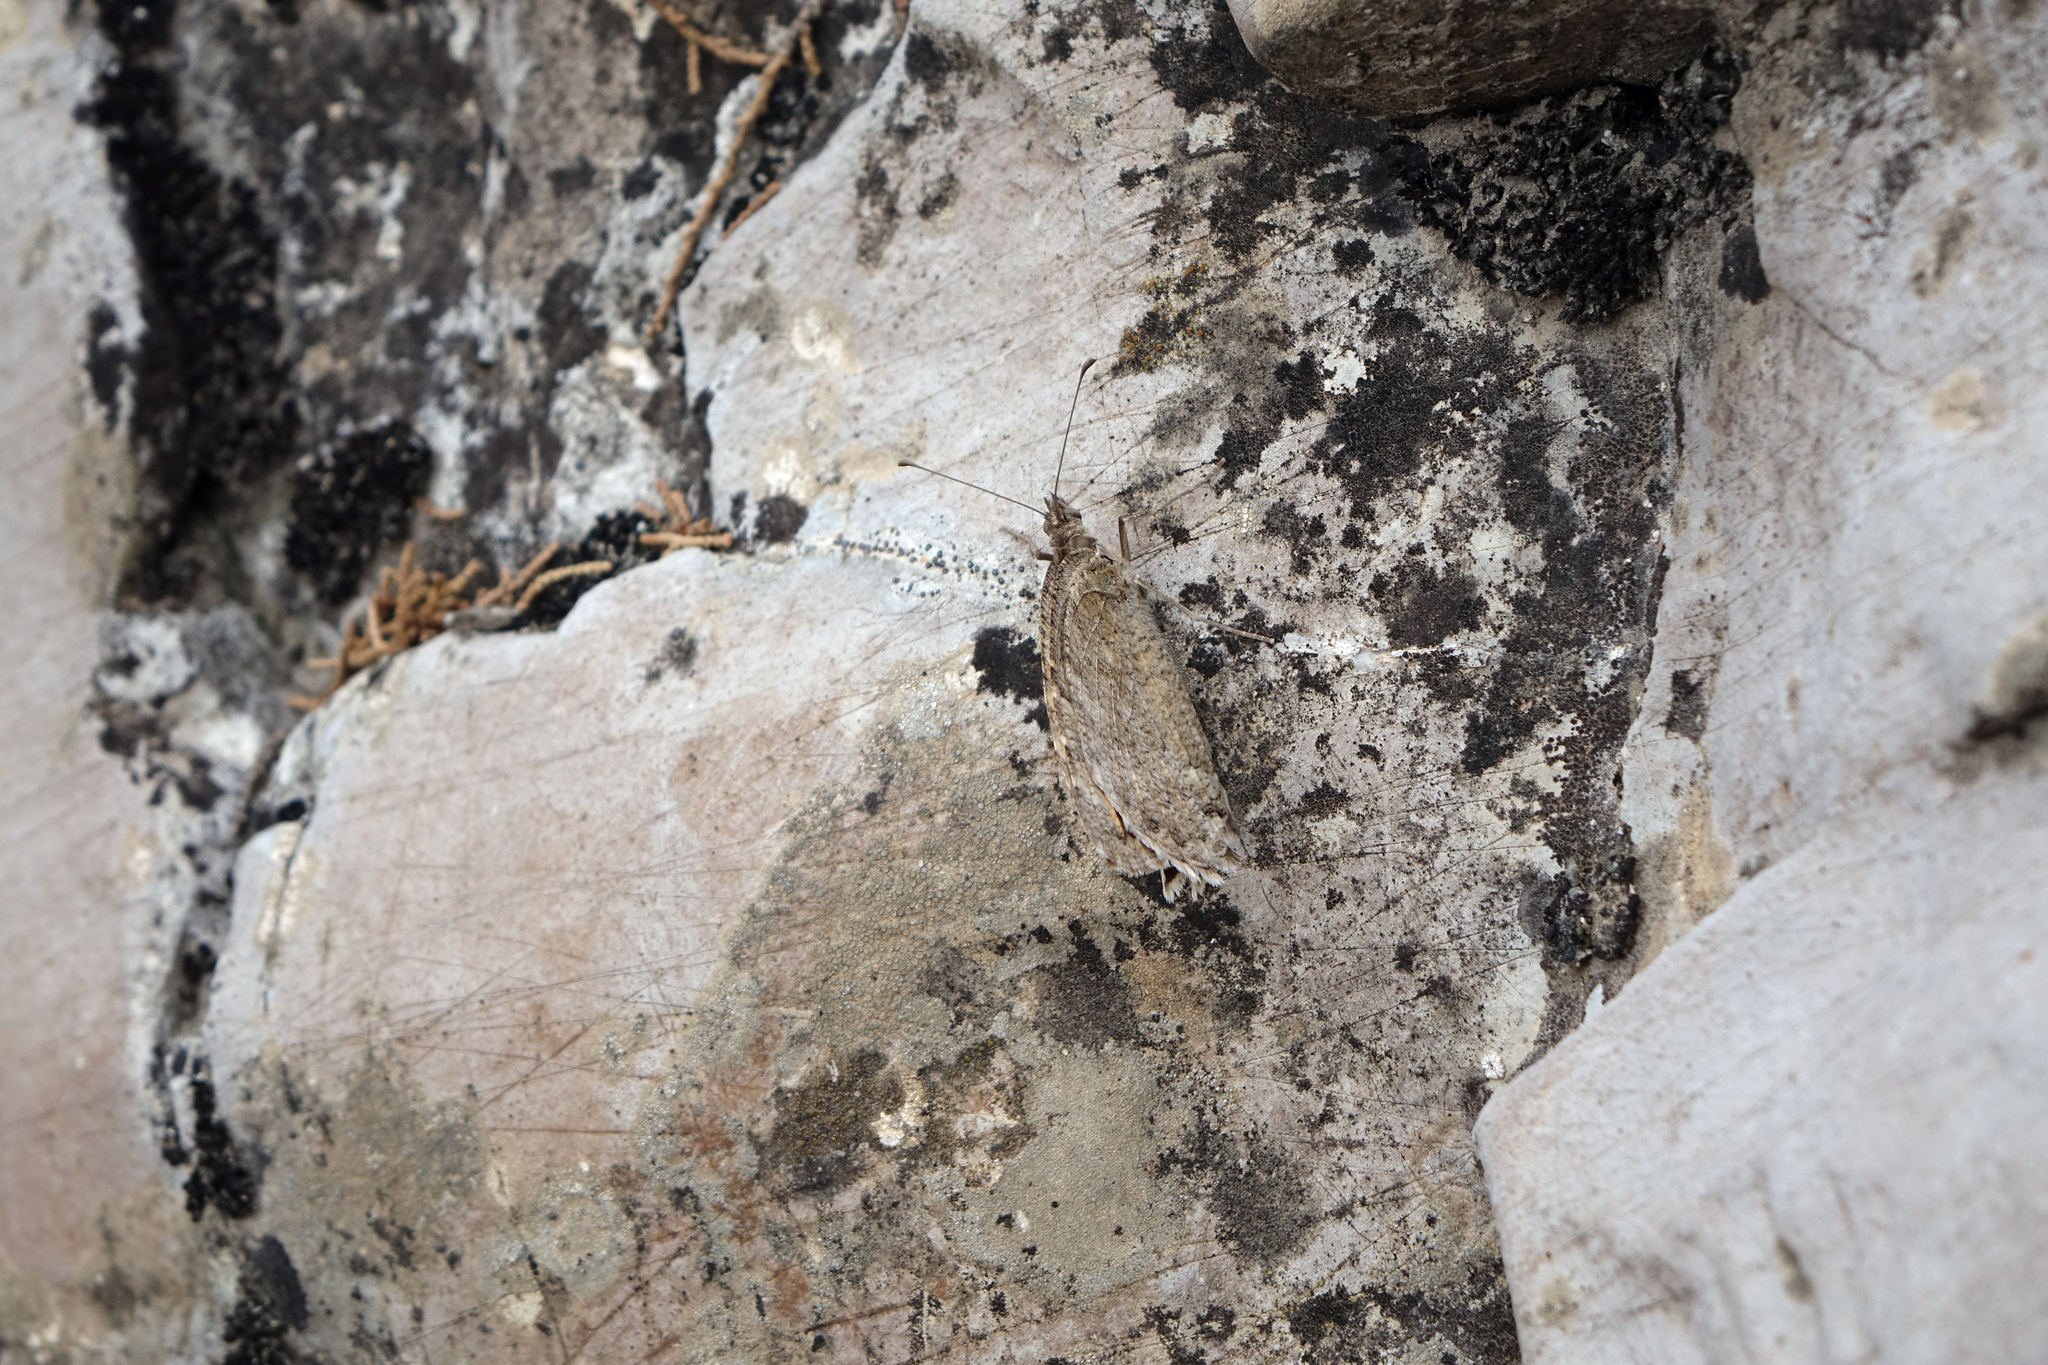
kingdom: Animalia
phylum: Arthropoda
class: Insecta
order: Lepidoptera
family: Nymphalidae
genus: Pseudochazara
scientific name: Pseudochazara pelopea
